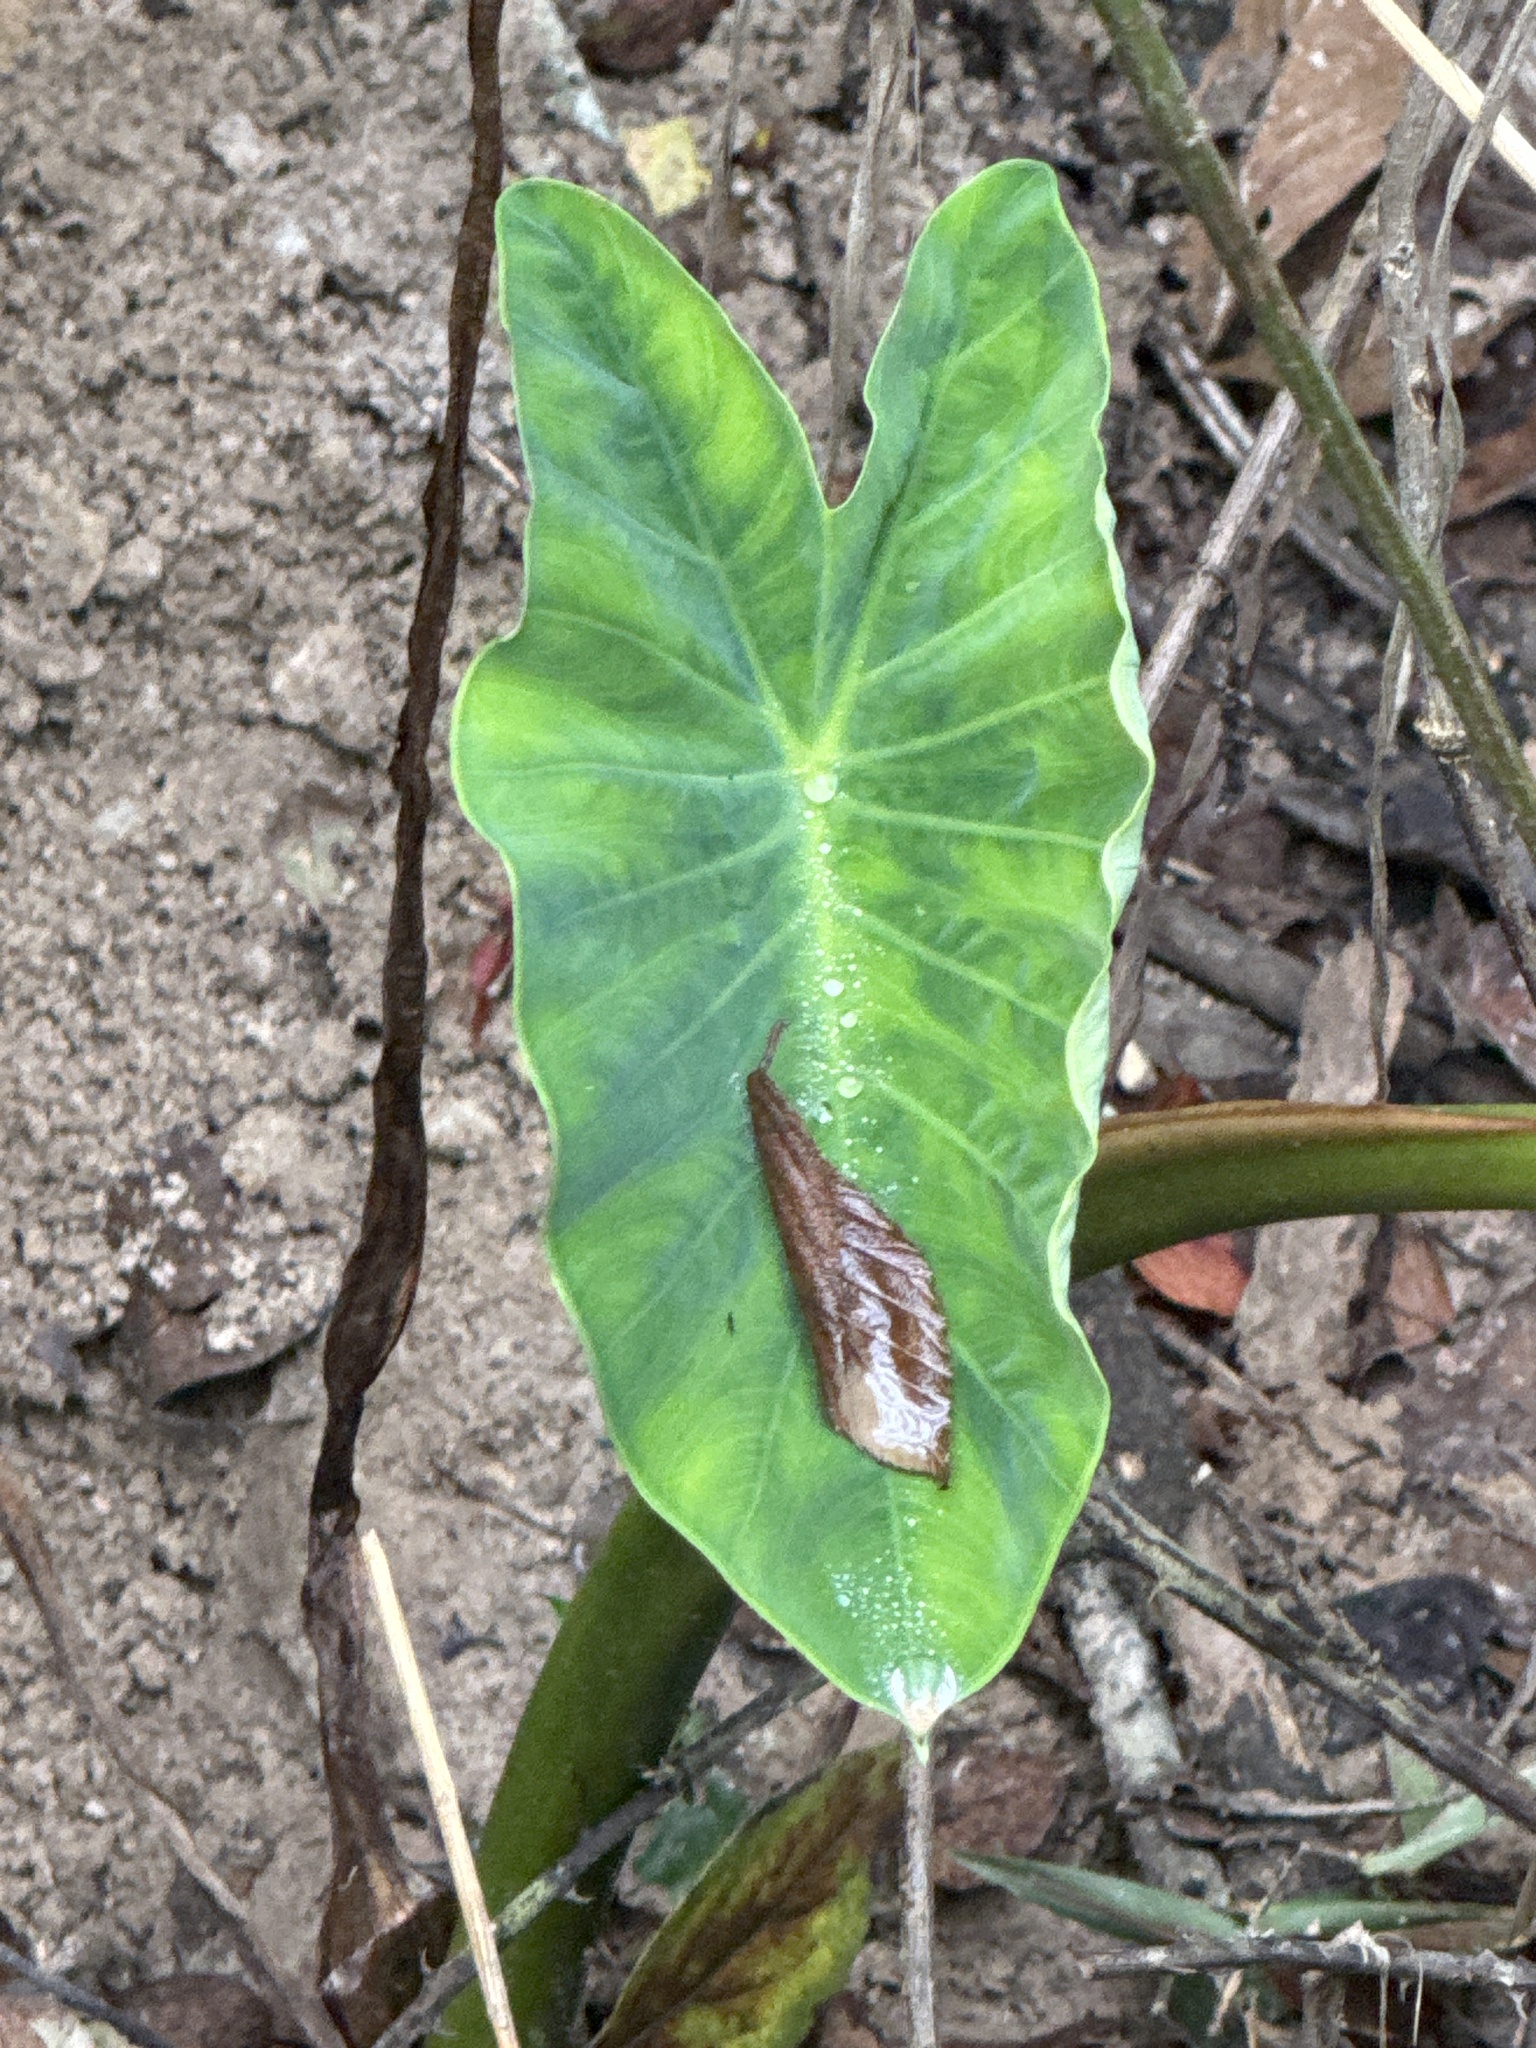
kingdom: Plantae
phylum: Tracheophyta
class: Liliopsida
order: Alismatales
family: Araceae
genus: Colocasia
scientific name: Colocasia esculenta
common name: Taro
